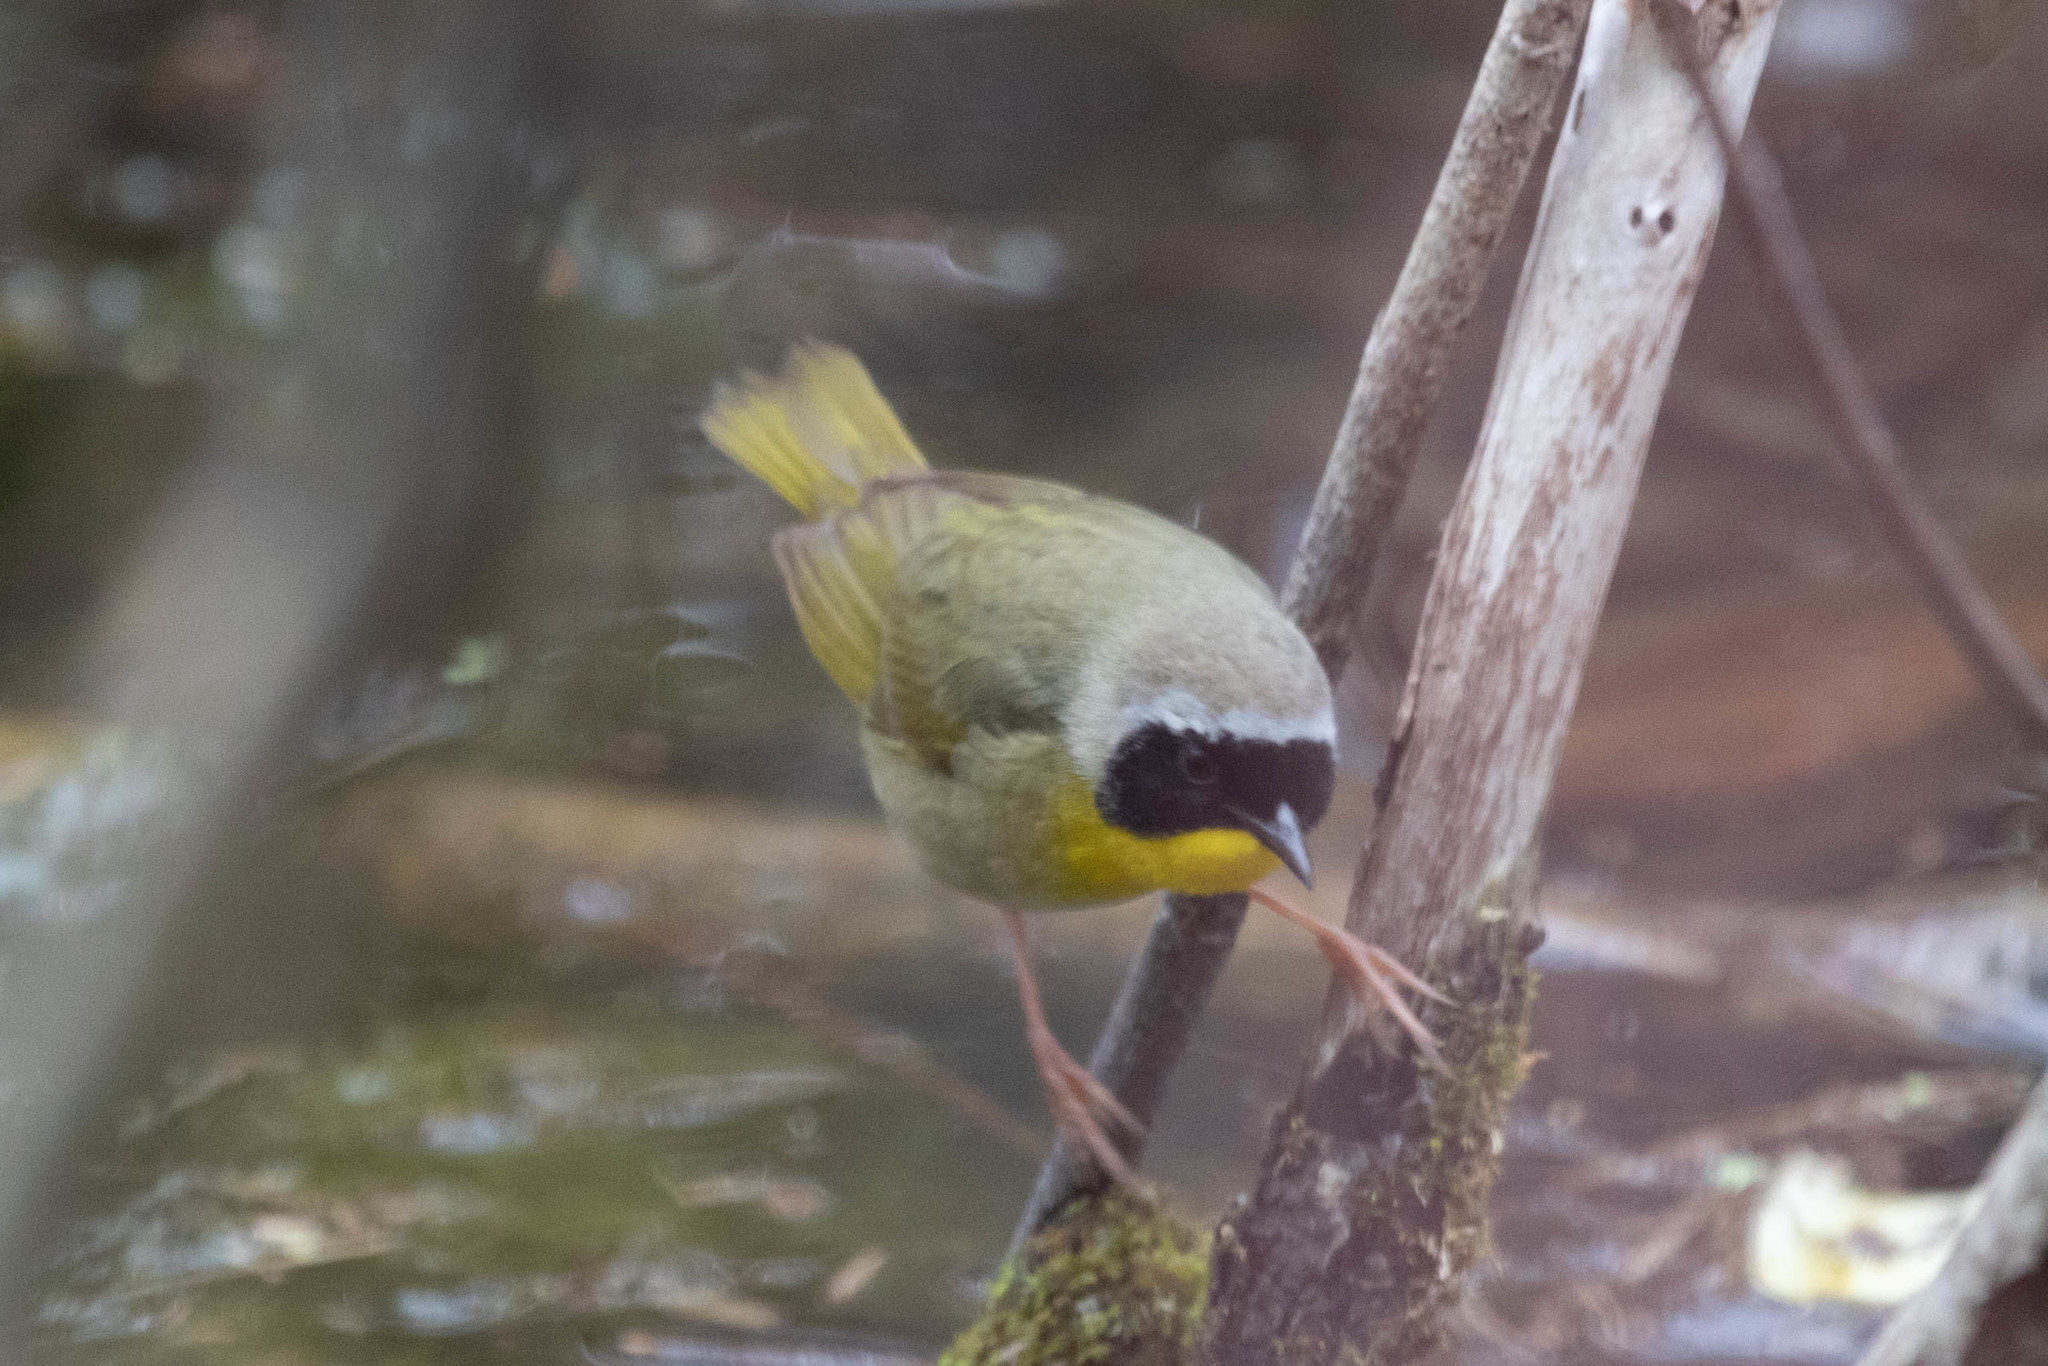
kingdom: Animalia
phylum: Chordata
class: Aves
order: Passeriformes
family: Parulidae
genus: Geothlypis
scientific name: Geothlypis trichas
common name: Common yellowthroat
